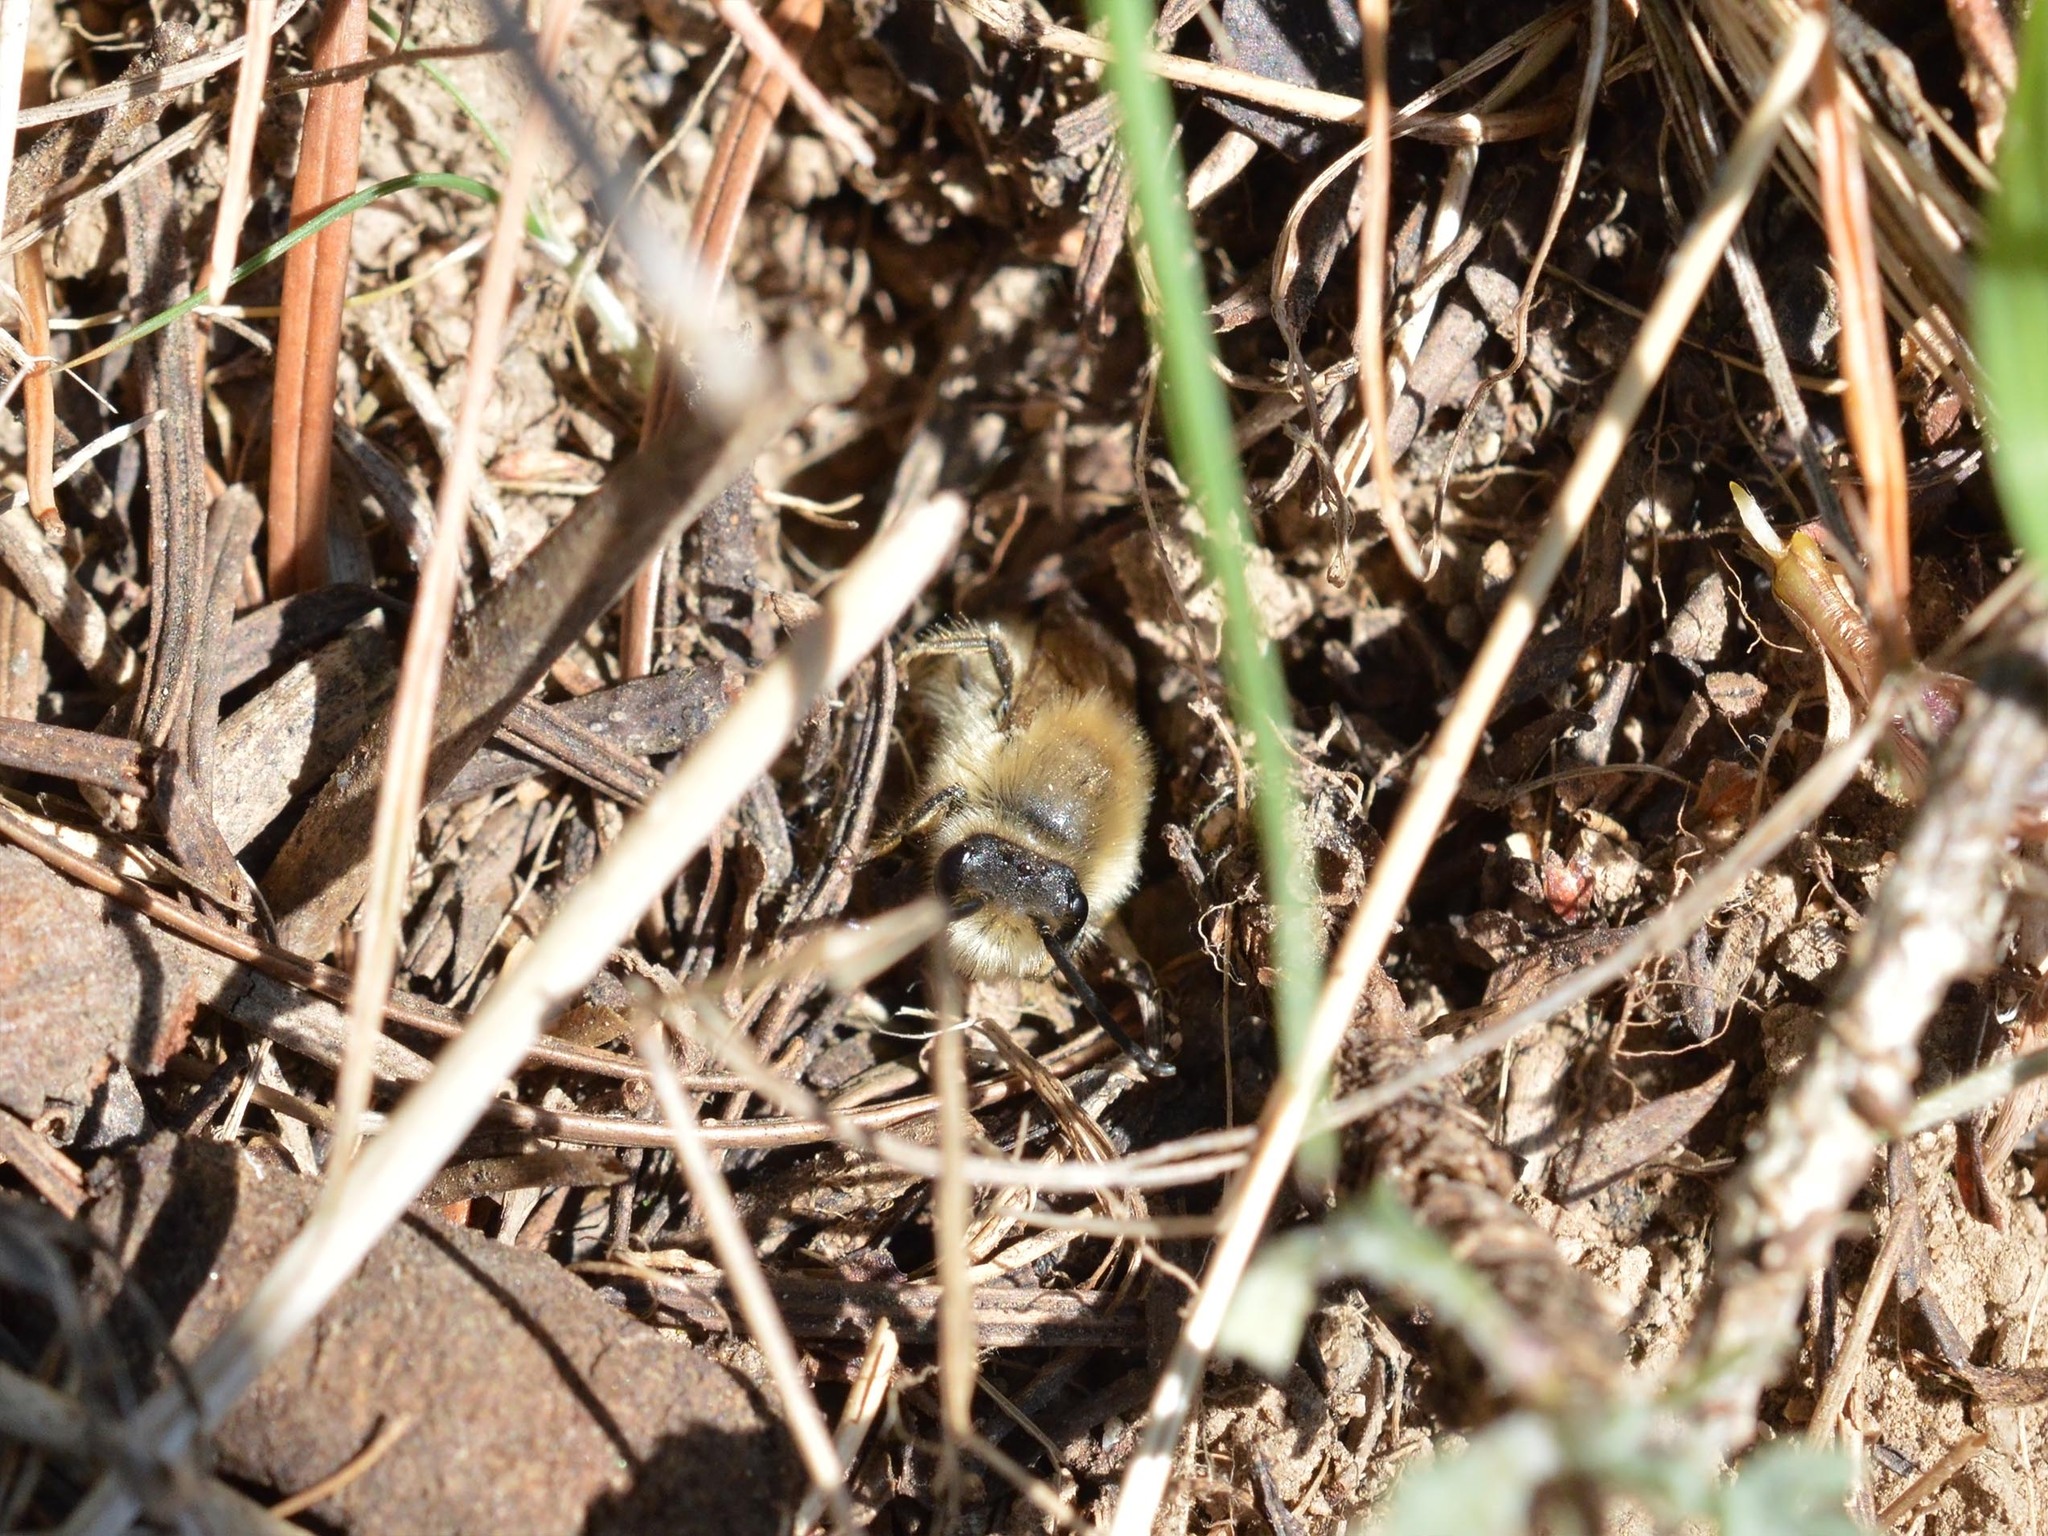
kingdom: Animalia
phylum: Arthropoda
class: Insecta
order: Hymenoptera
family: Colletidae
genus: Colletes
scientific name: Colletes cunicularius
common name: Early colletes
